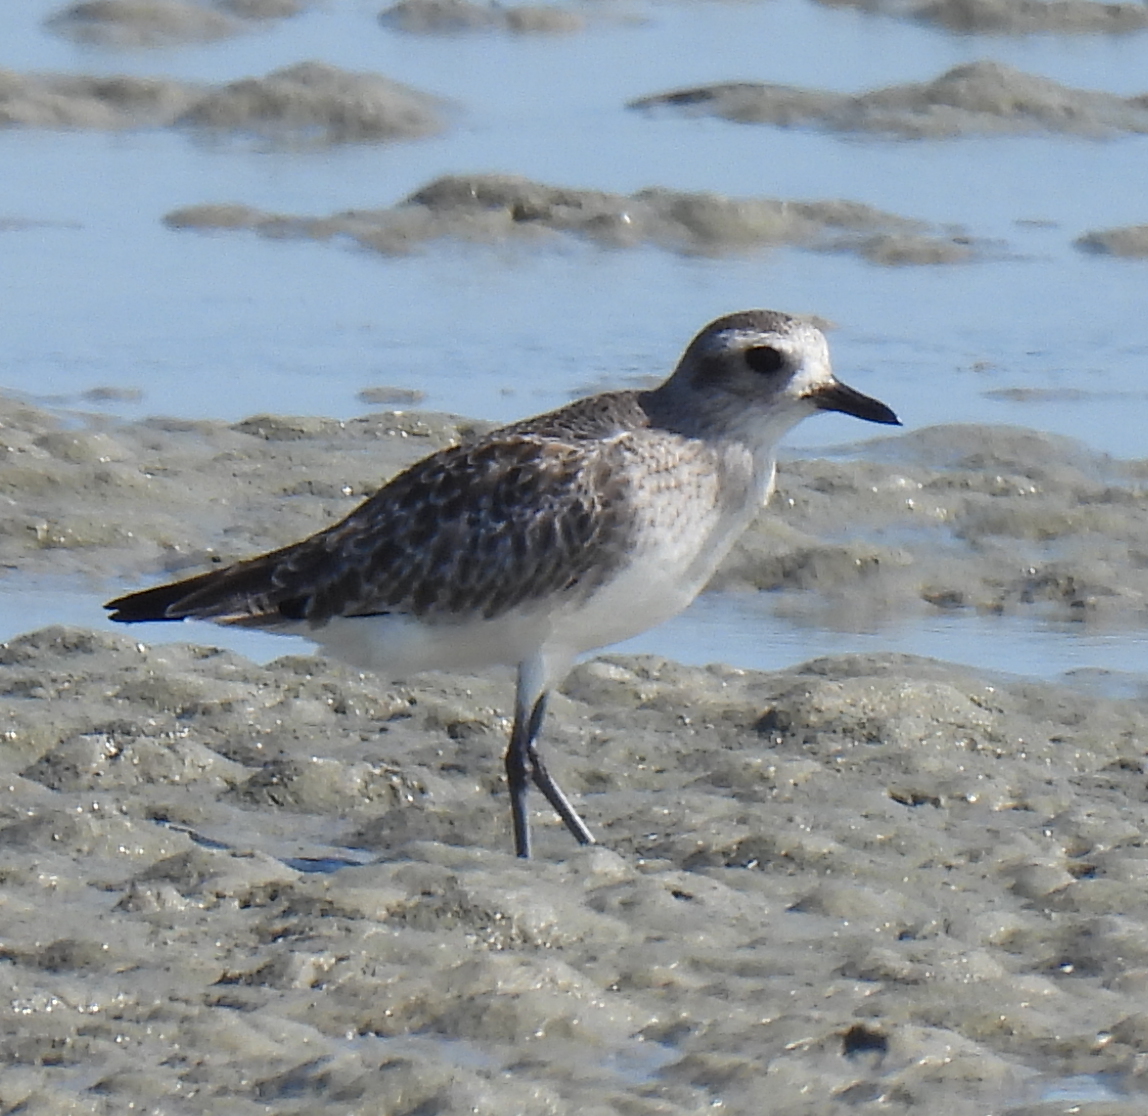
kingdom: Animalia
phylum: Chordata
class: Aves
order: Charadriiformes
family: Charadriidae
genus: Pluvialis
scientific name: Pluvialis squatarola
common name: Grey plover
